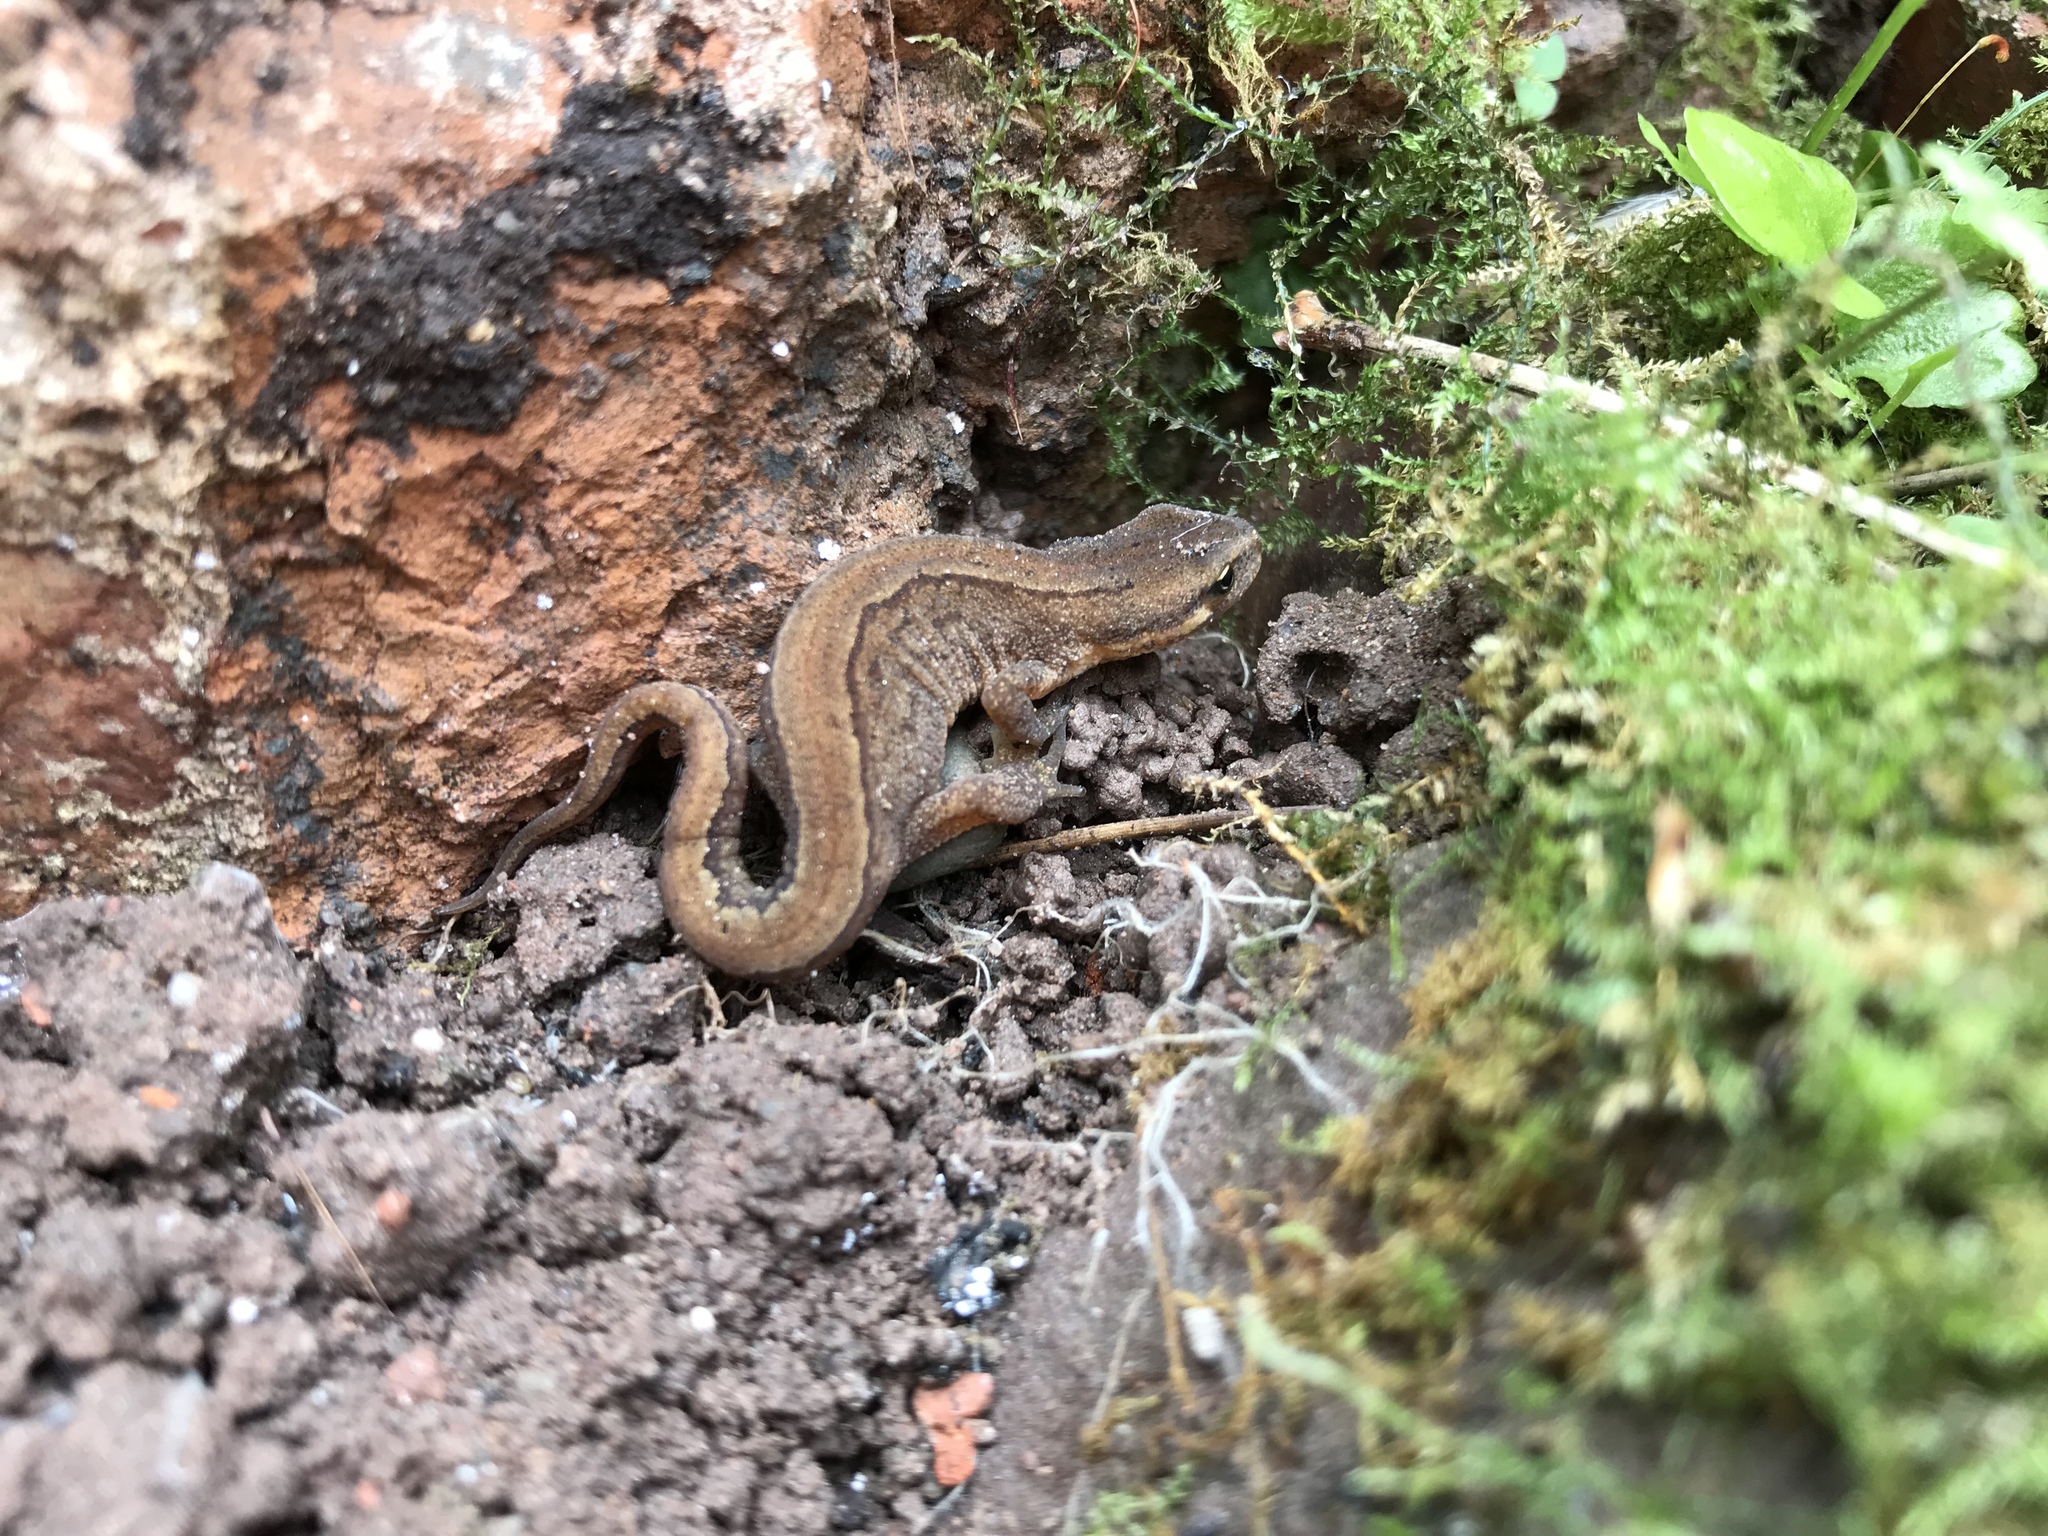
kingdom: Animalia
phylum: Chordata
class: Amphibia
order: Caudata
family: Salamandridae
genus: Lissotriton
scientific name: Lissotriton vulgaris
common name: Smooth newt
